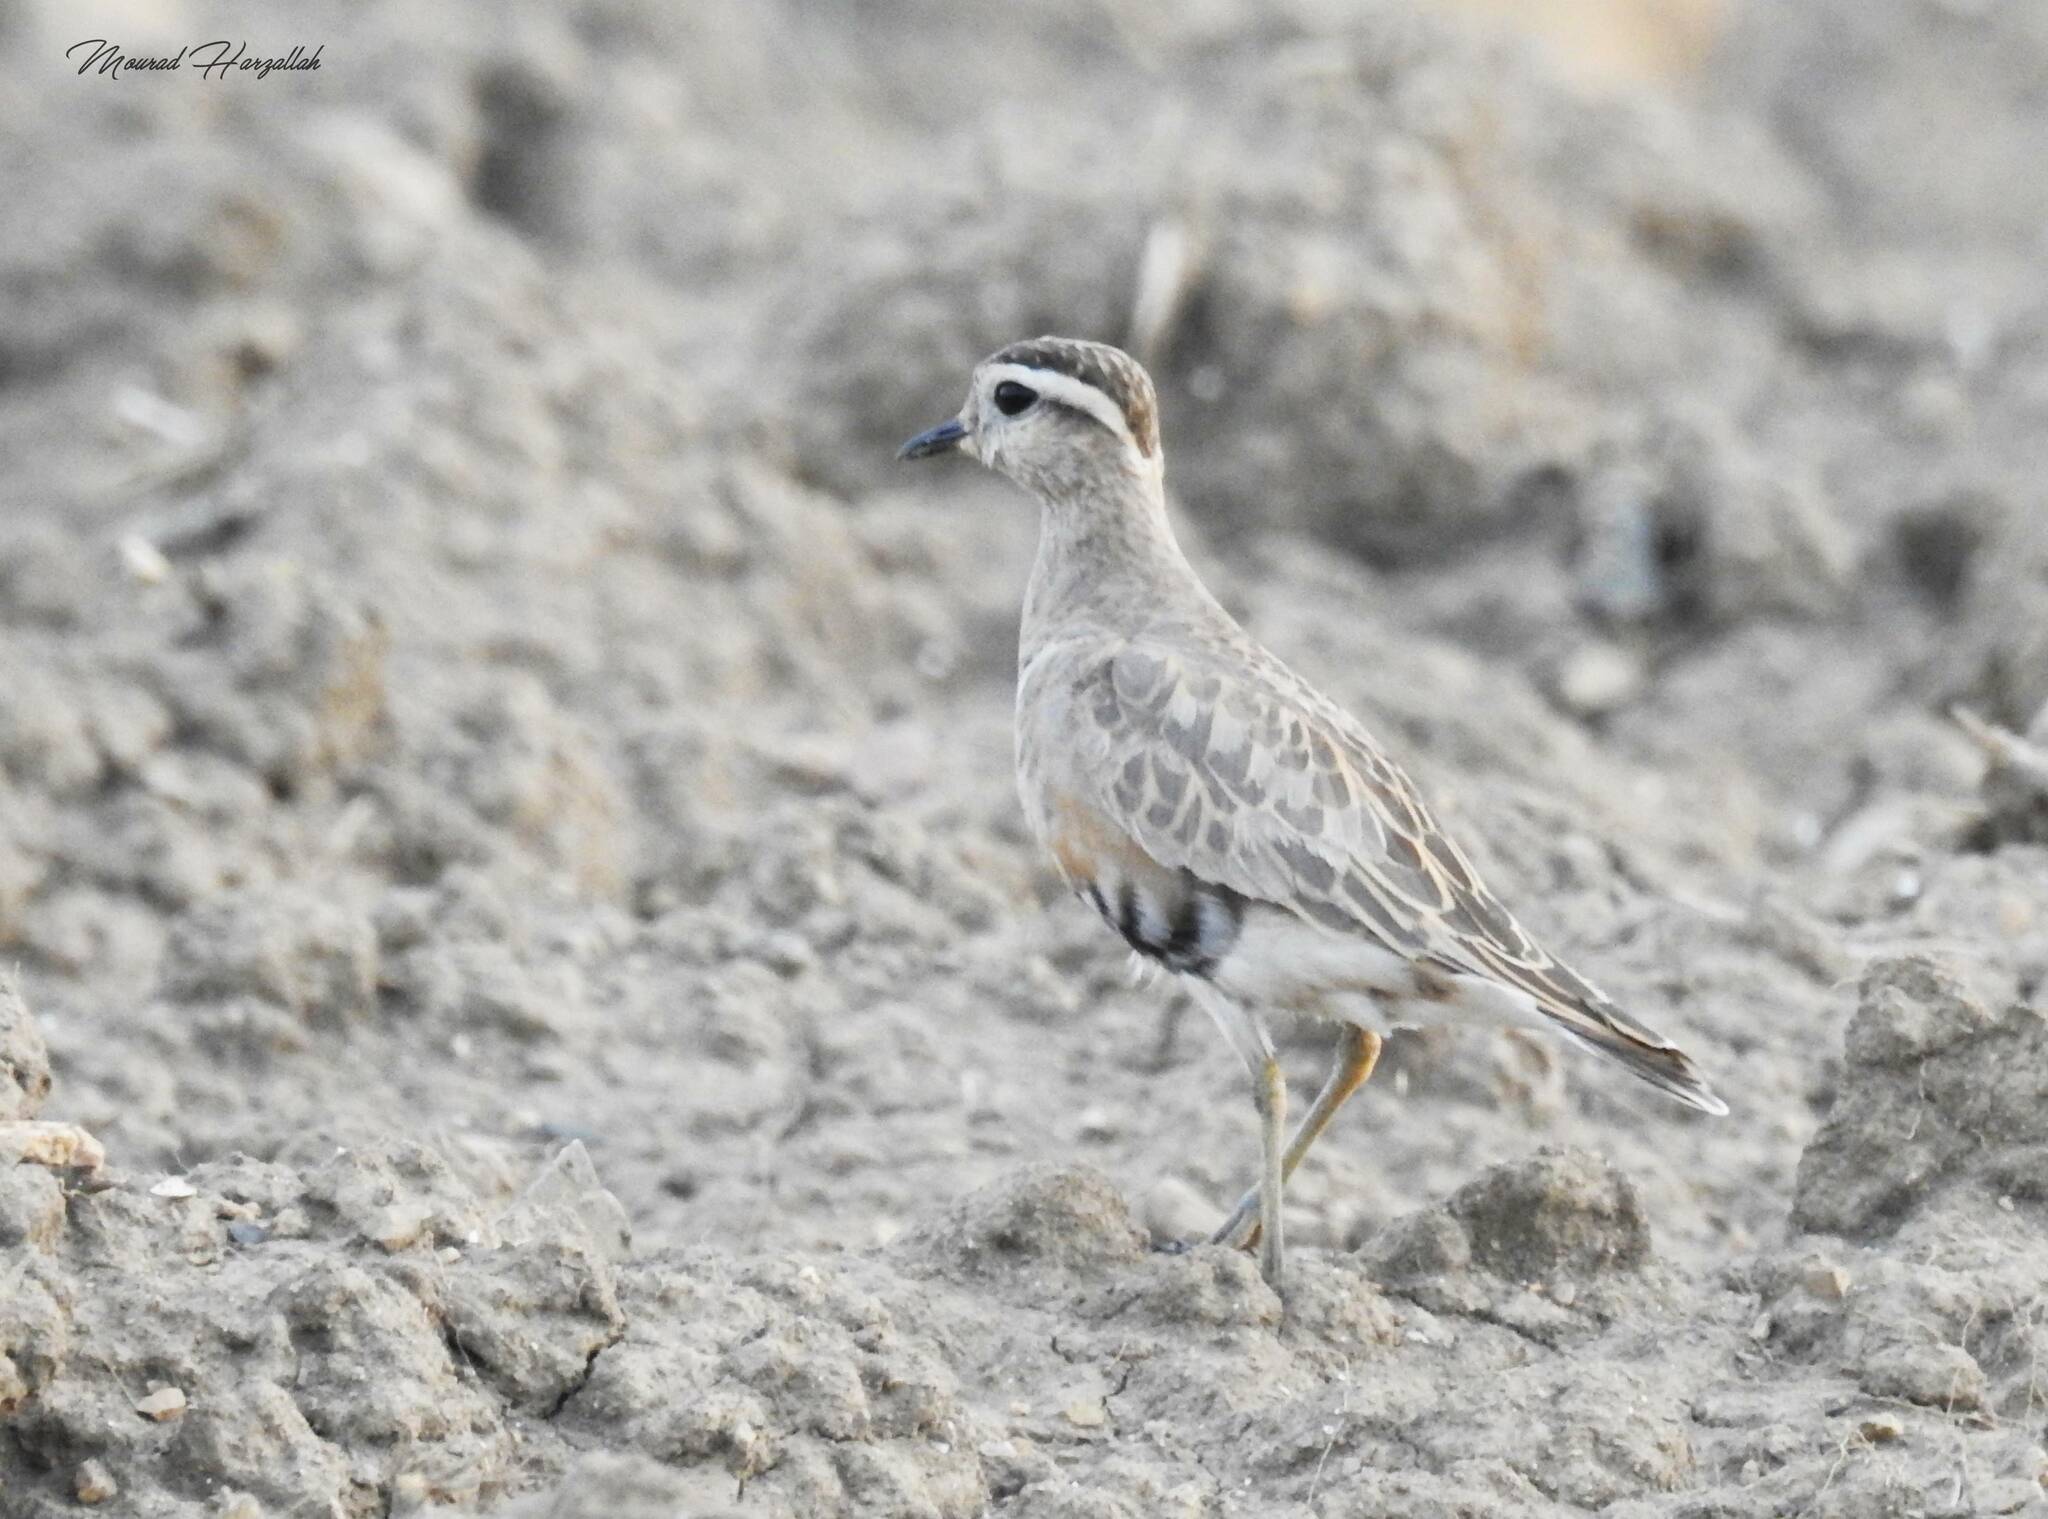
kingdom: Animalia
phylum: Chordata
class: Aves
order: Charadriiformes
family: Charadriidae
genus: Charadrius
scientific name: Charadrius morinellus
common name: Eurasian dotterel
